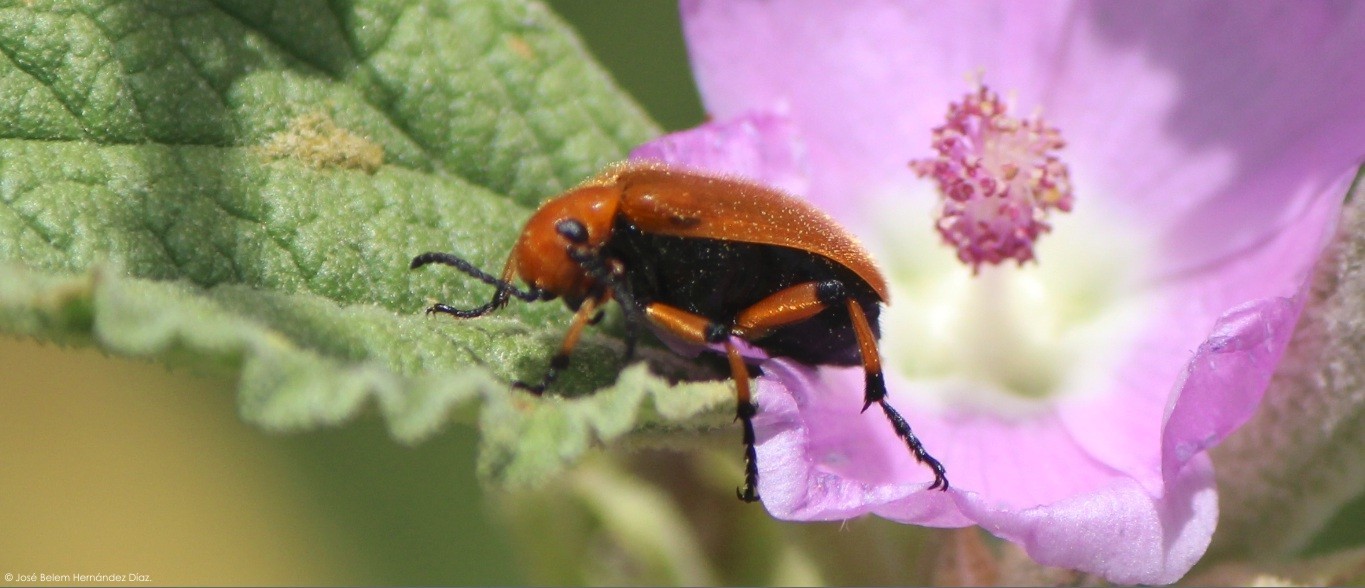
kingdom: Animalia
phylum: Arthropoda
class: Insecta
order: Coleoptera
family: Meloidae
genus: Tetraonyx
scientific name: Tetraonyx fulva
